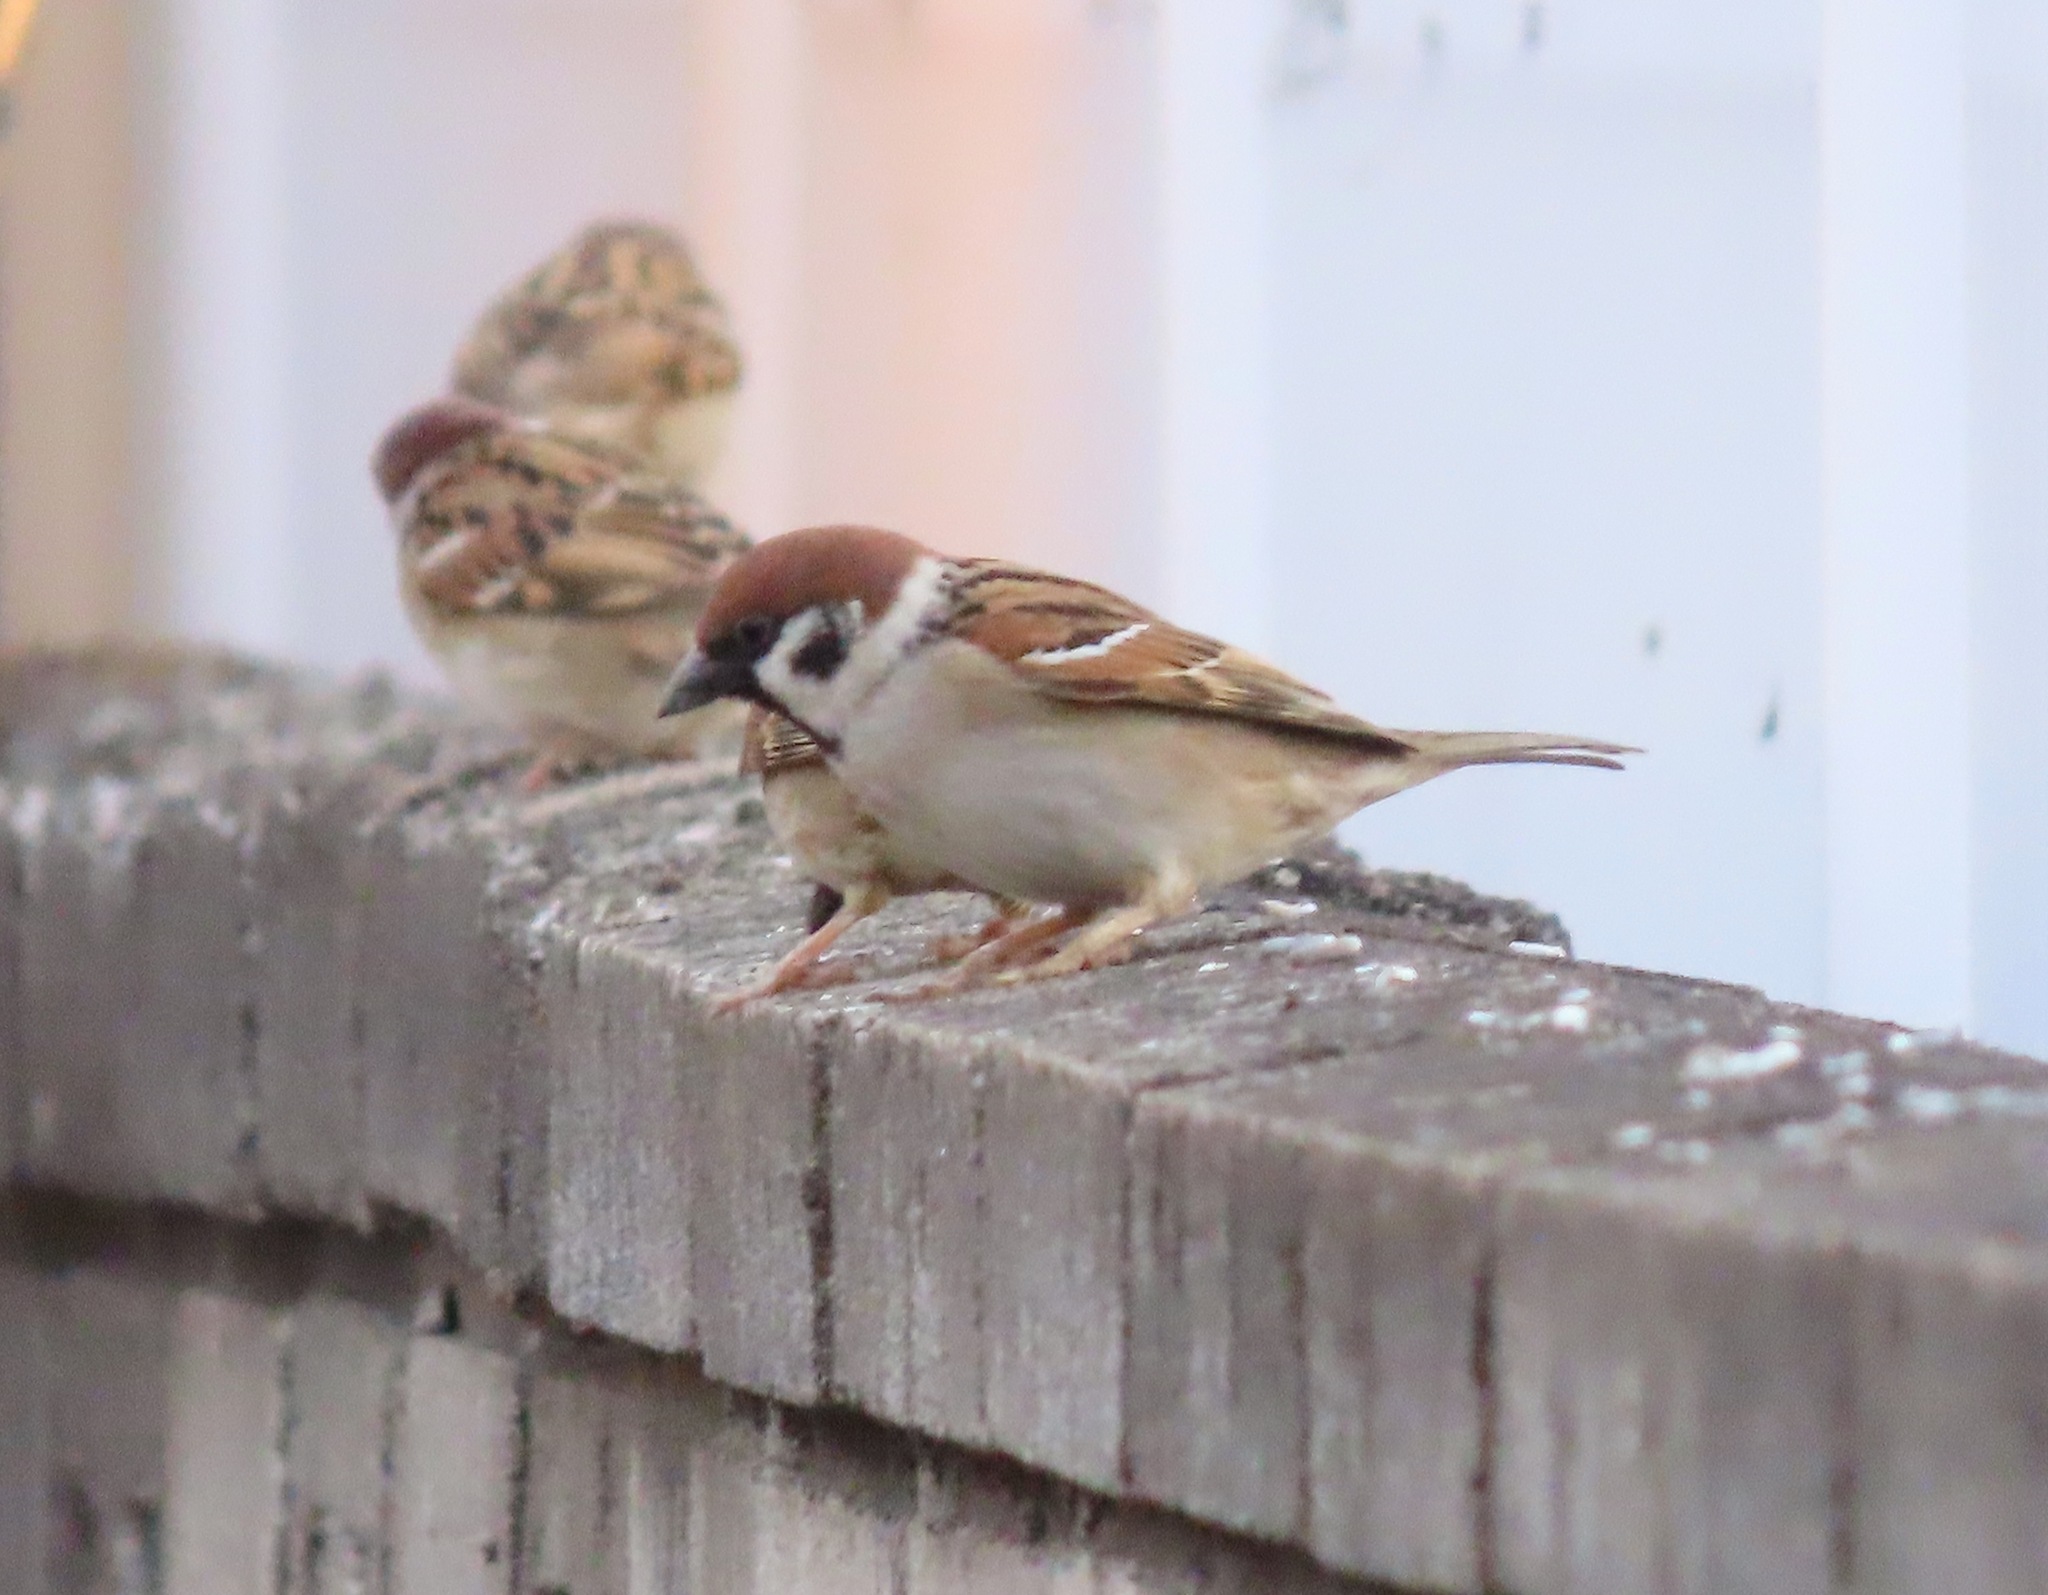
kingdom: Animalia
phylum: Chordata
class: Aves
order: Passeriformes
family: Passeridae
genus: Passer
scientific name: Passer montanus
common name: Eurasian tree sparrow
